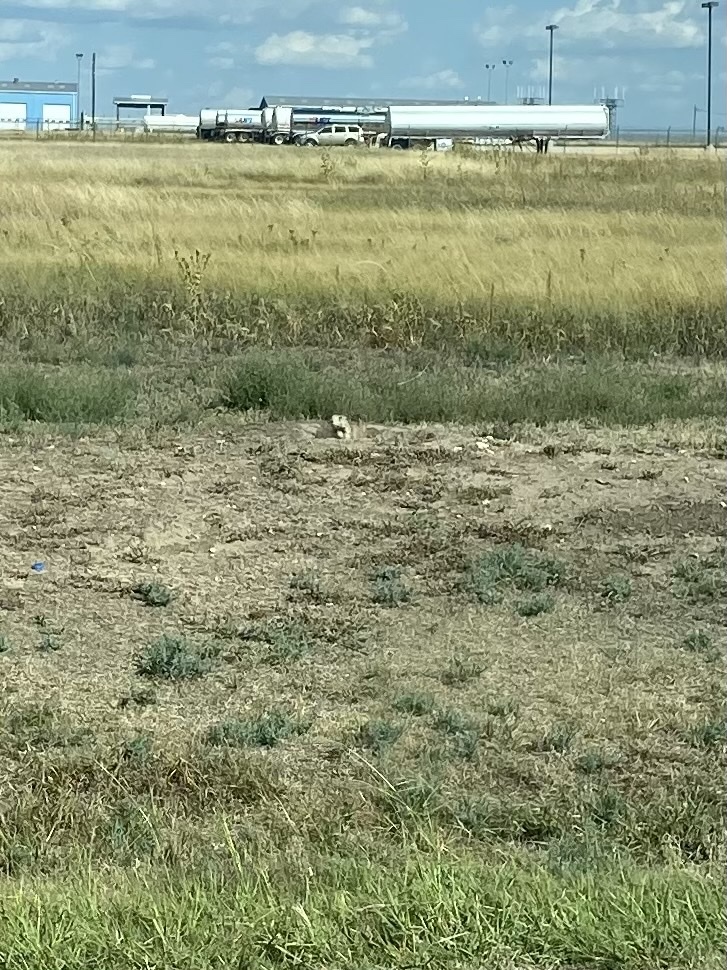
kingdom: Animalia
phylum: Chordata
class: Mammalia
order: Rodentia
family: Sciuridae
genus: Cynomys
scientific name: Cynomys ludovicianus
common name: Black-tailed prairie dog
